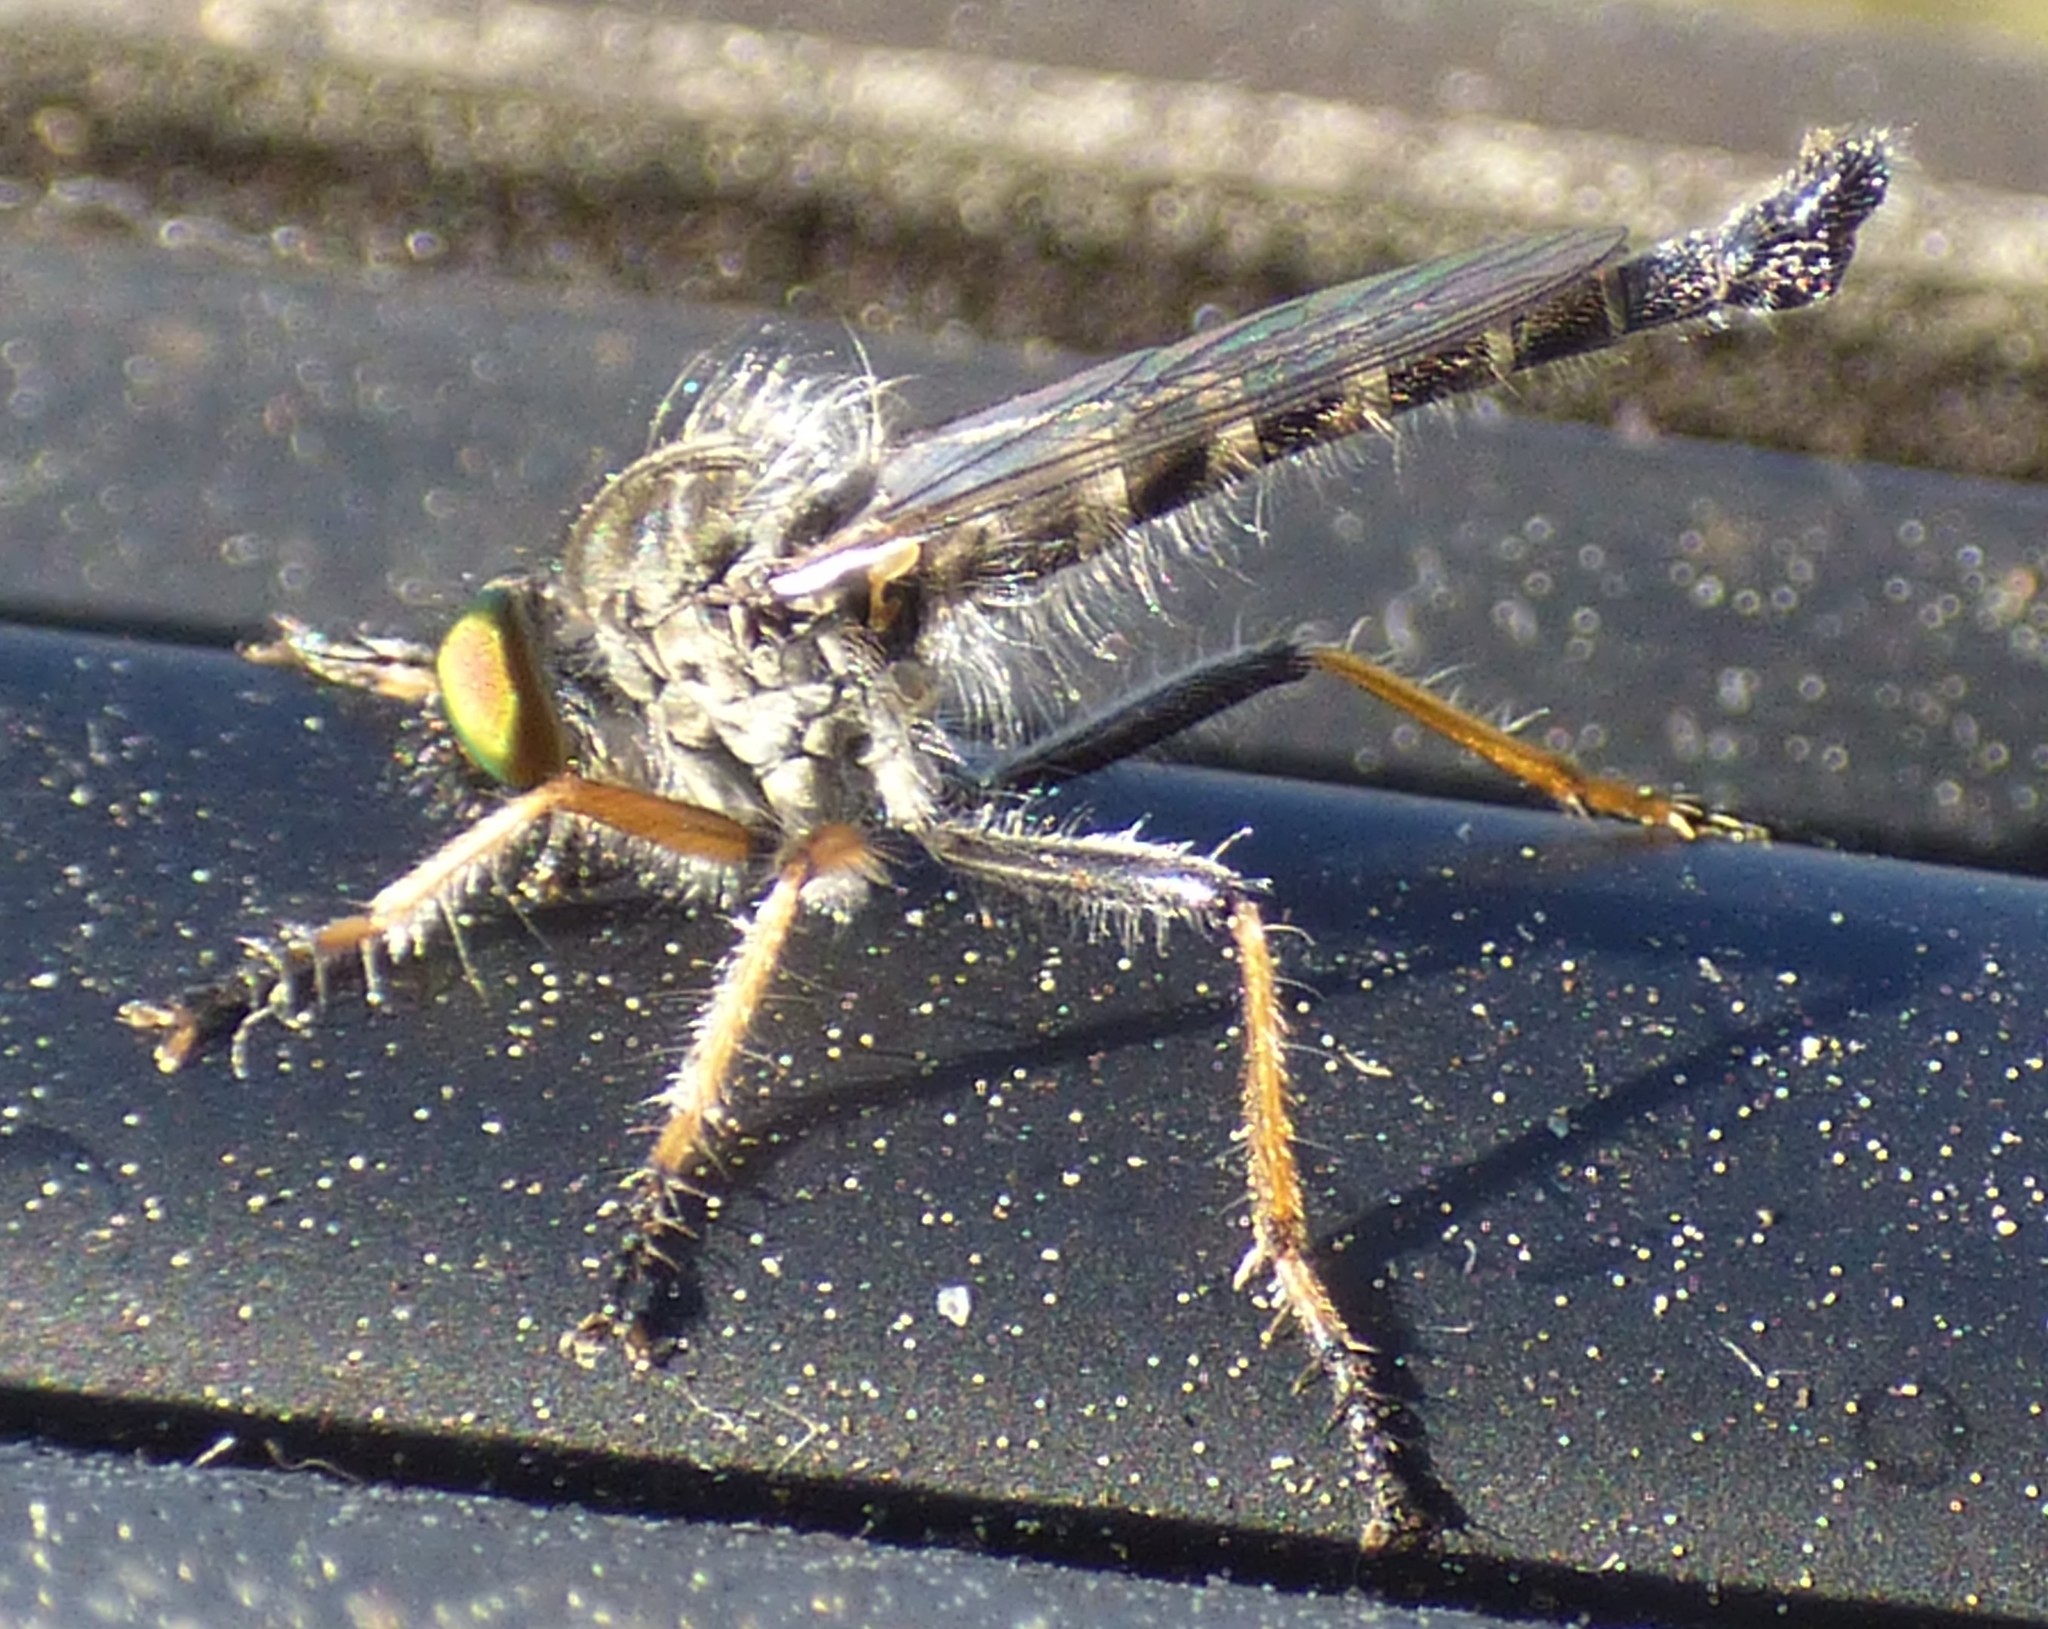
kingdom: Animalia
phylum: Arthropoda
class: Insecta
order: Diptera
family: Asilidae
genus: Asilus
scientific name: Asilus flavofemoratus
